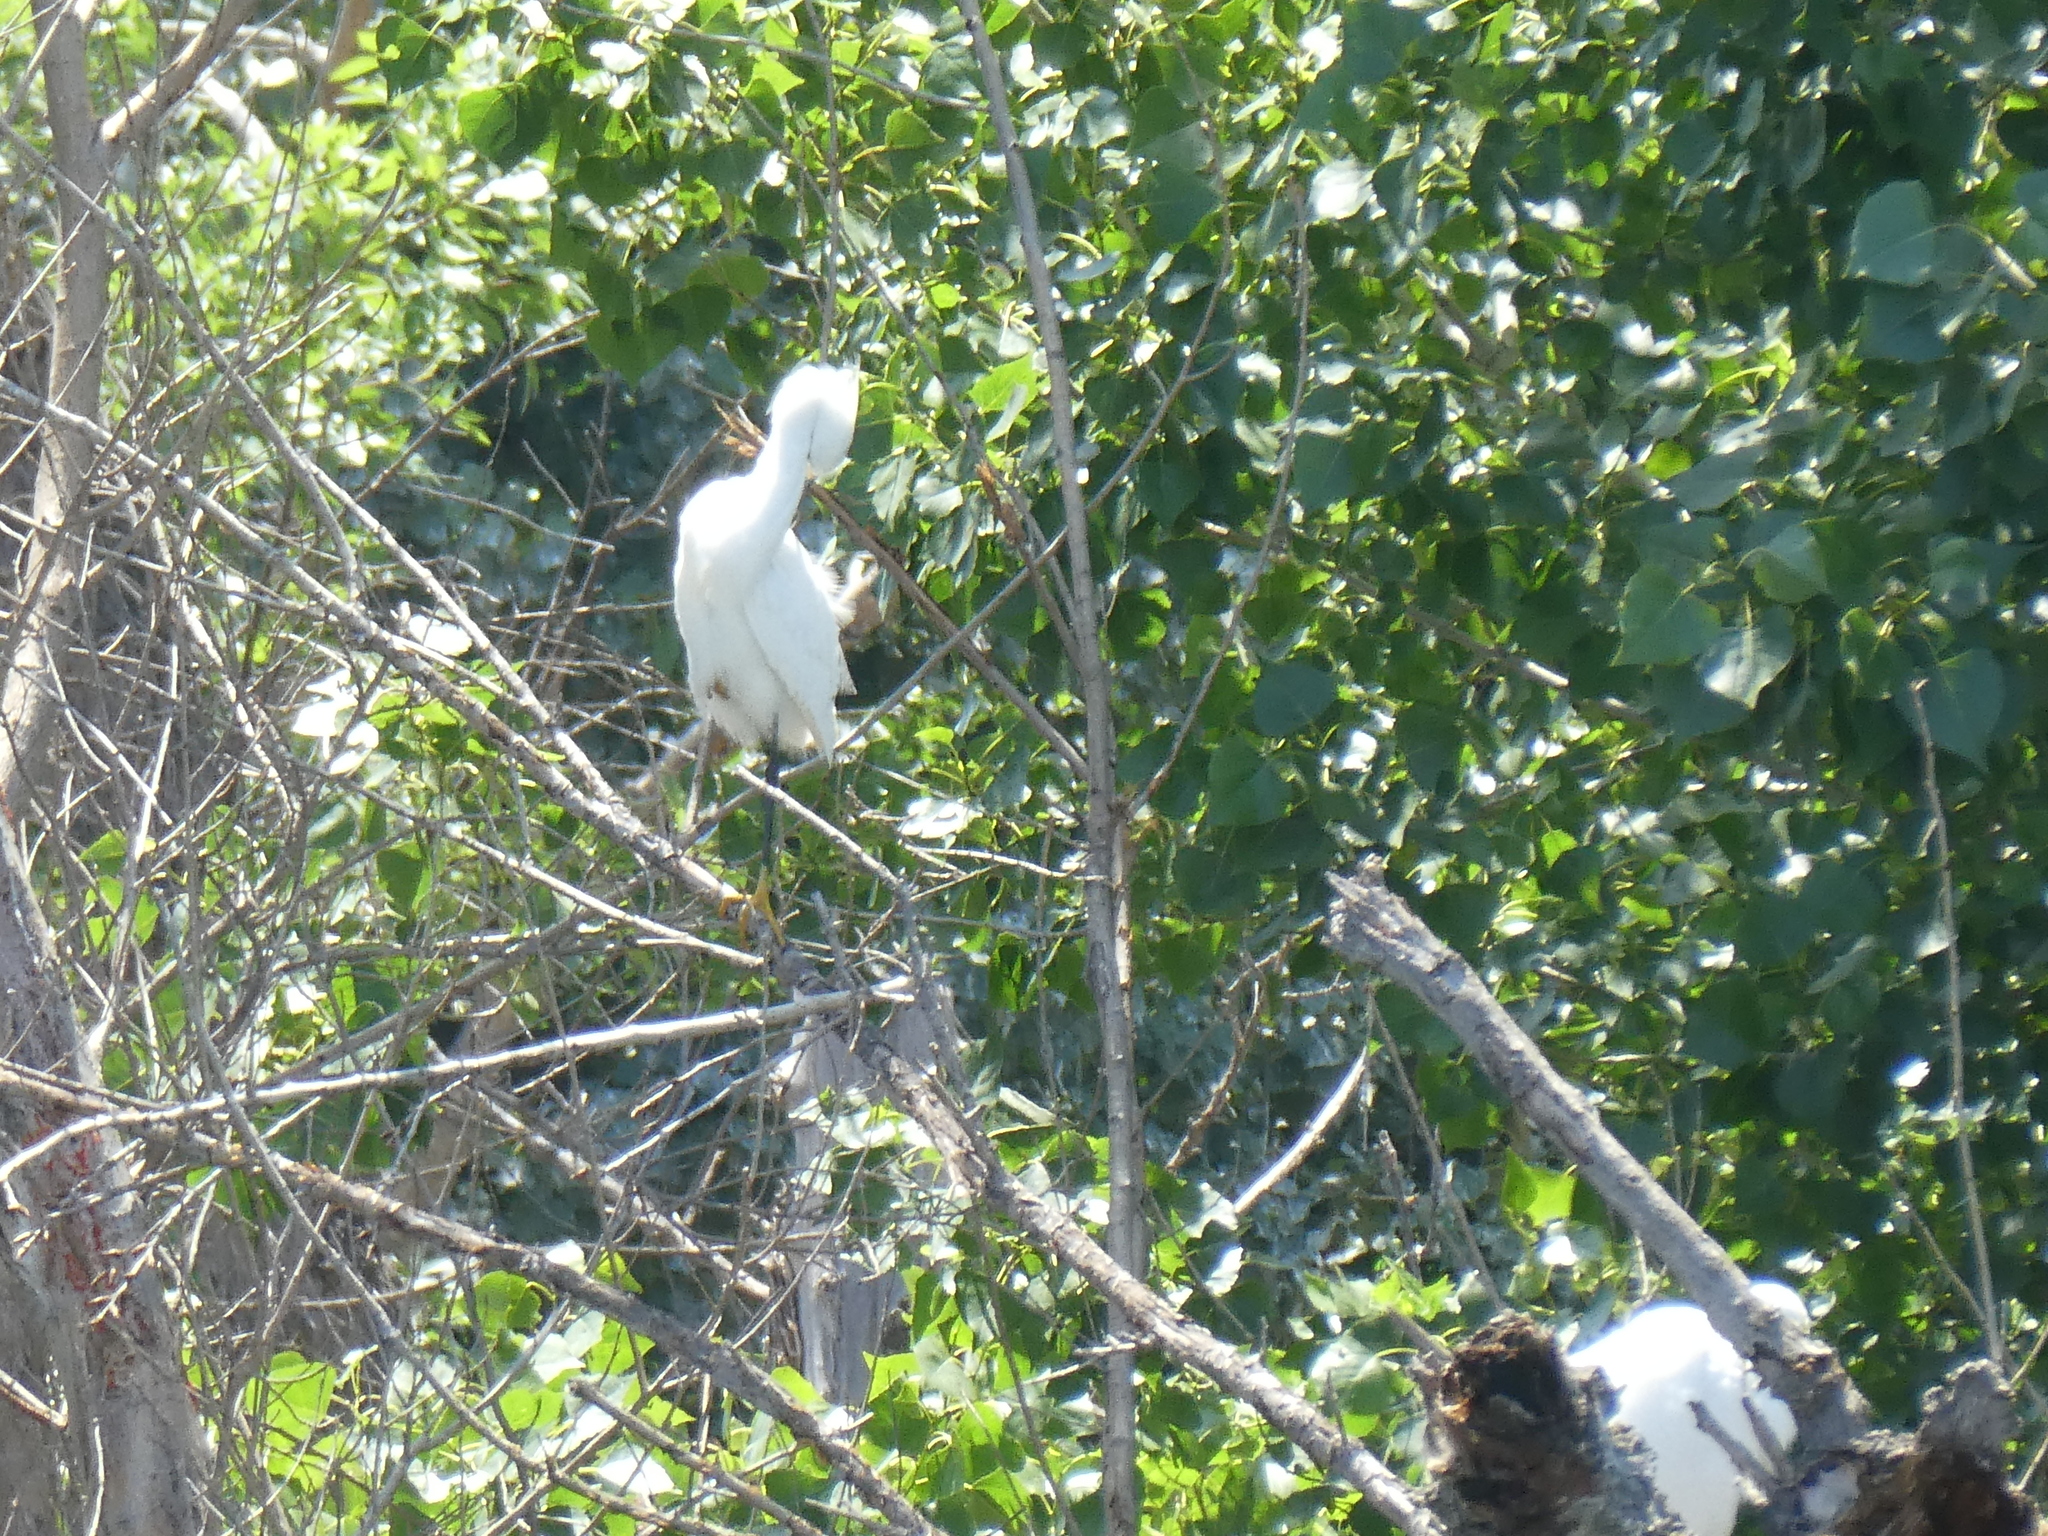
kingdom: Animalia
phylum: Chordata
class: Aves
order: Pelecaniformes
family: Ardeidae
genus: Egretta
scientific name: Egretta thula
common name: Snowy egret
